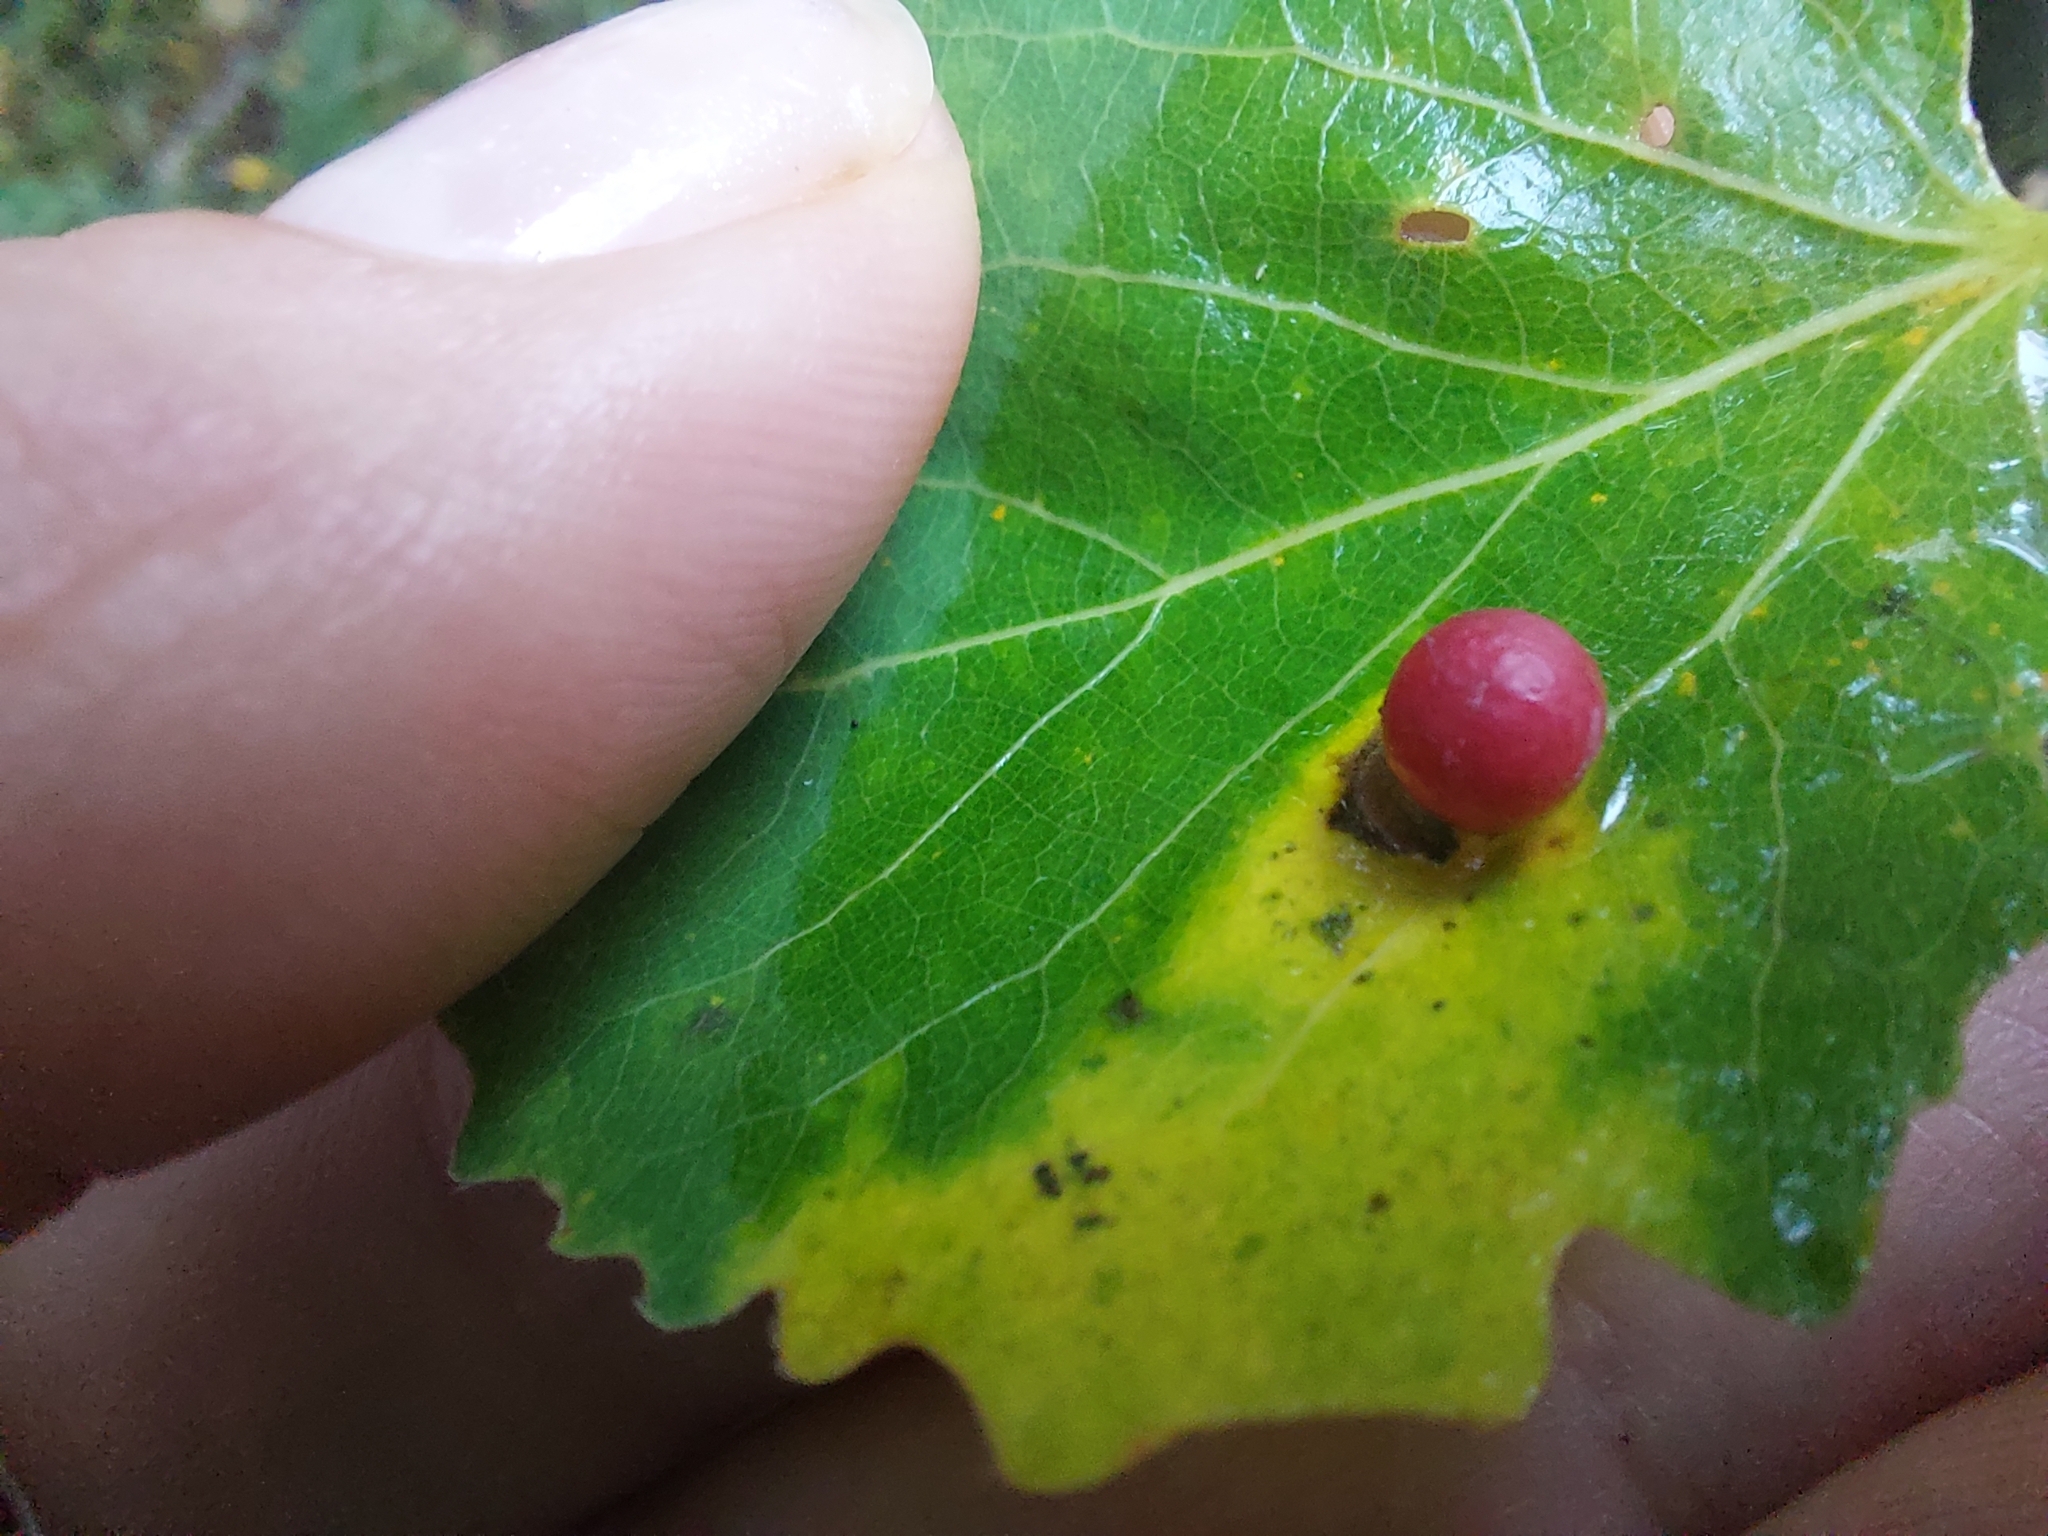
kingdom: Animalia
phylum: Arthropoda
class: Insecta
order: Diptera
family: Cecidomyiidae
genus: Harmandiola
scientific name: Harmandiola tremulae
